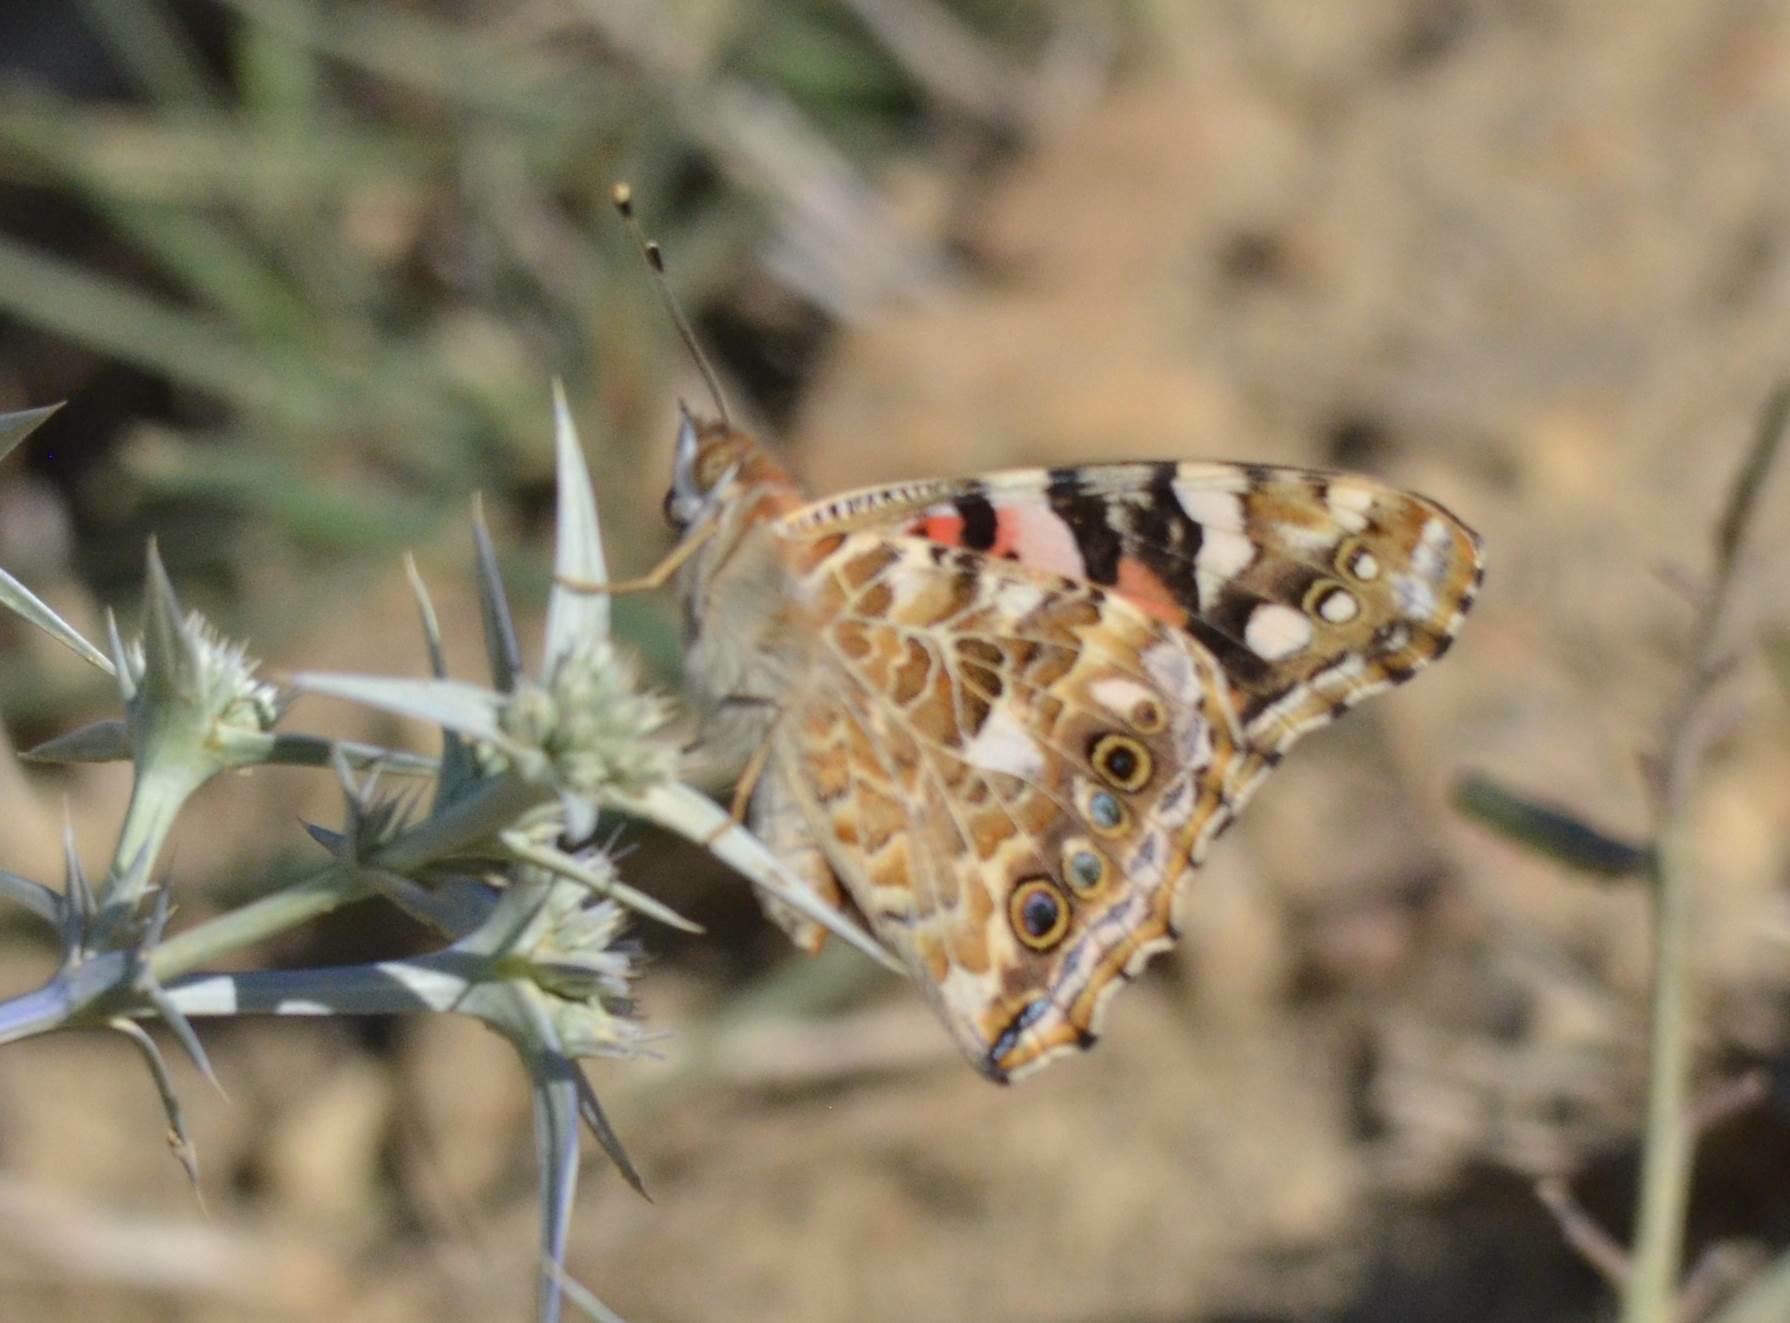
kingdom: Animalia
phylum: Arthropoda
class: Insecta
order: Lepidoptera
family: Nymphalidae
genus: Vanessa
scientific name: Vanessa cardui
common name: Painted lady
